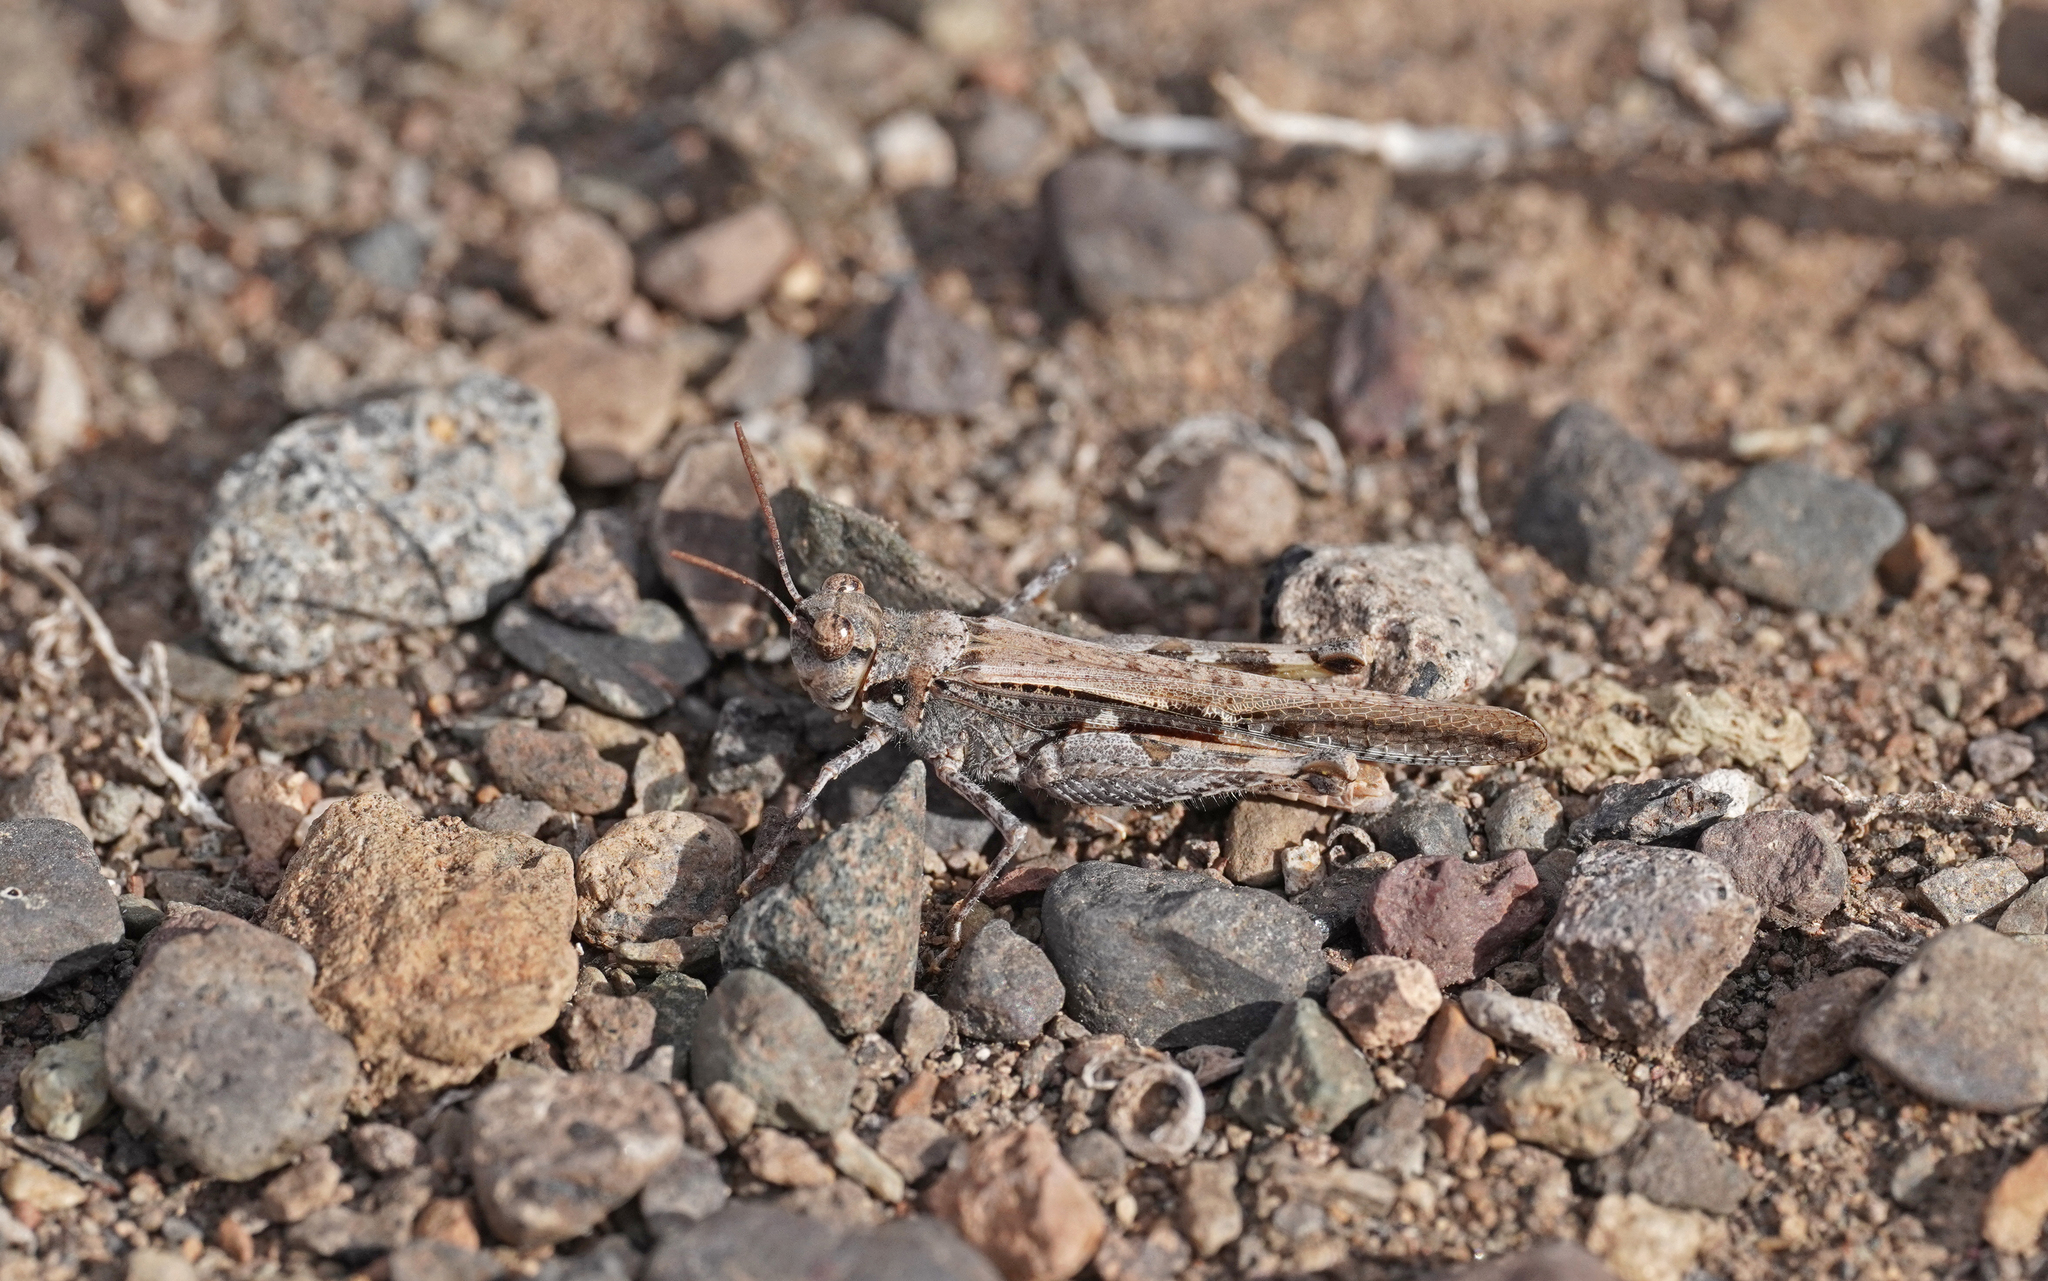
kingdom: Animalia
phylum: Arthropoda
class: Insecta
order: Orthoptera
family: Acrididae
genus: Acrotylus
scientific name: Acrotylus insubricus
